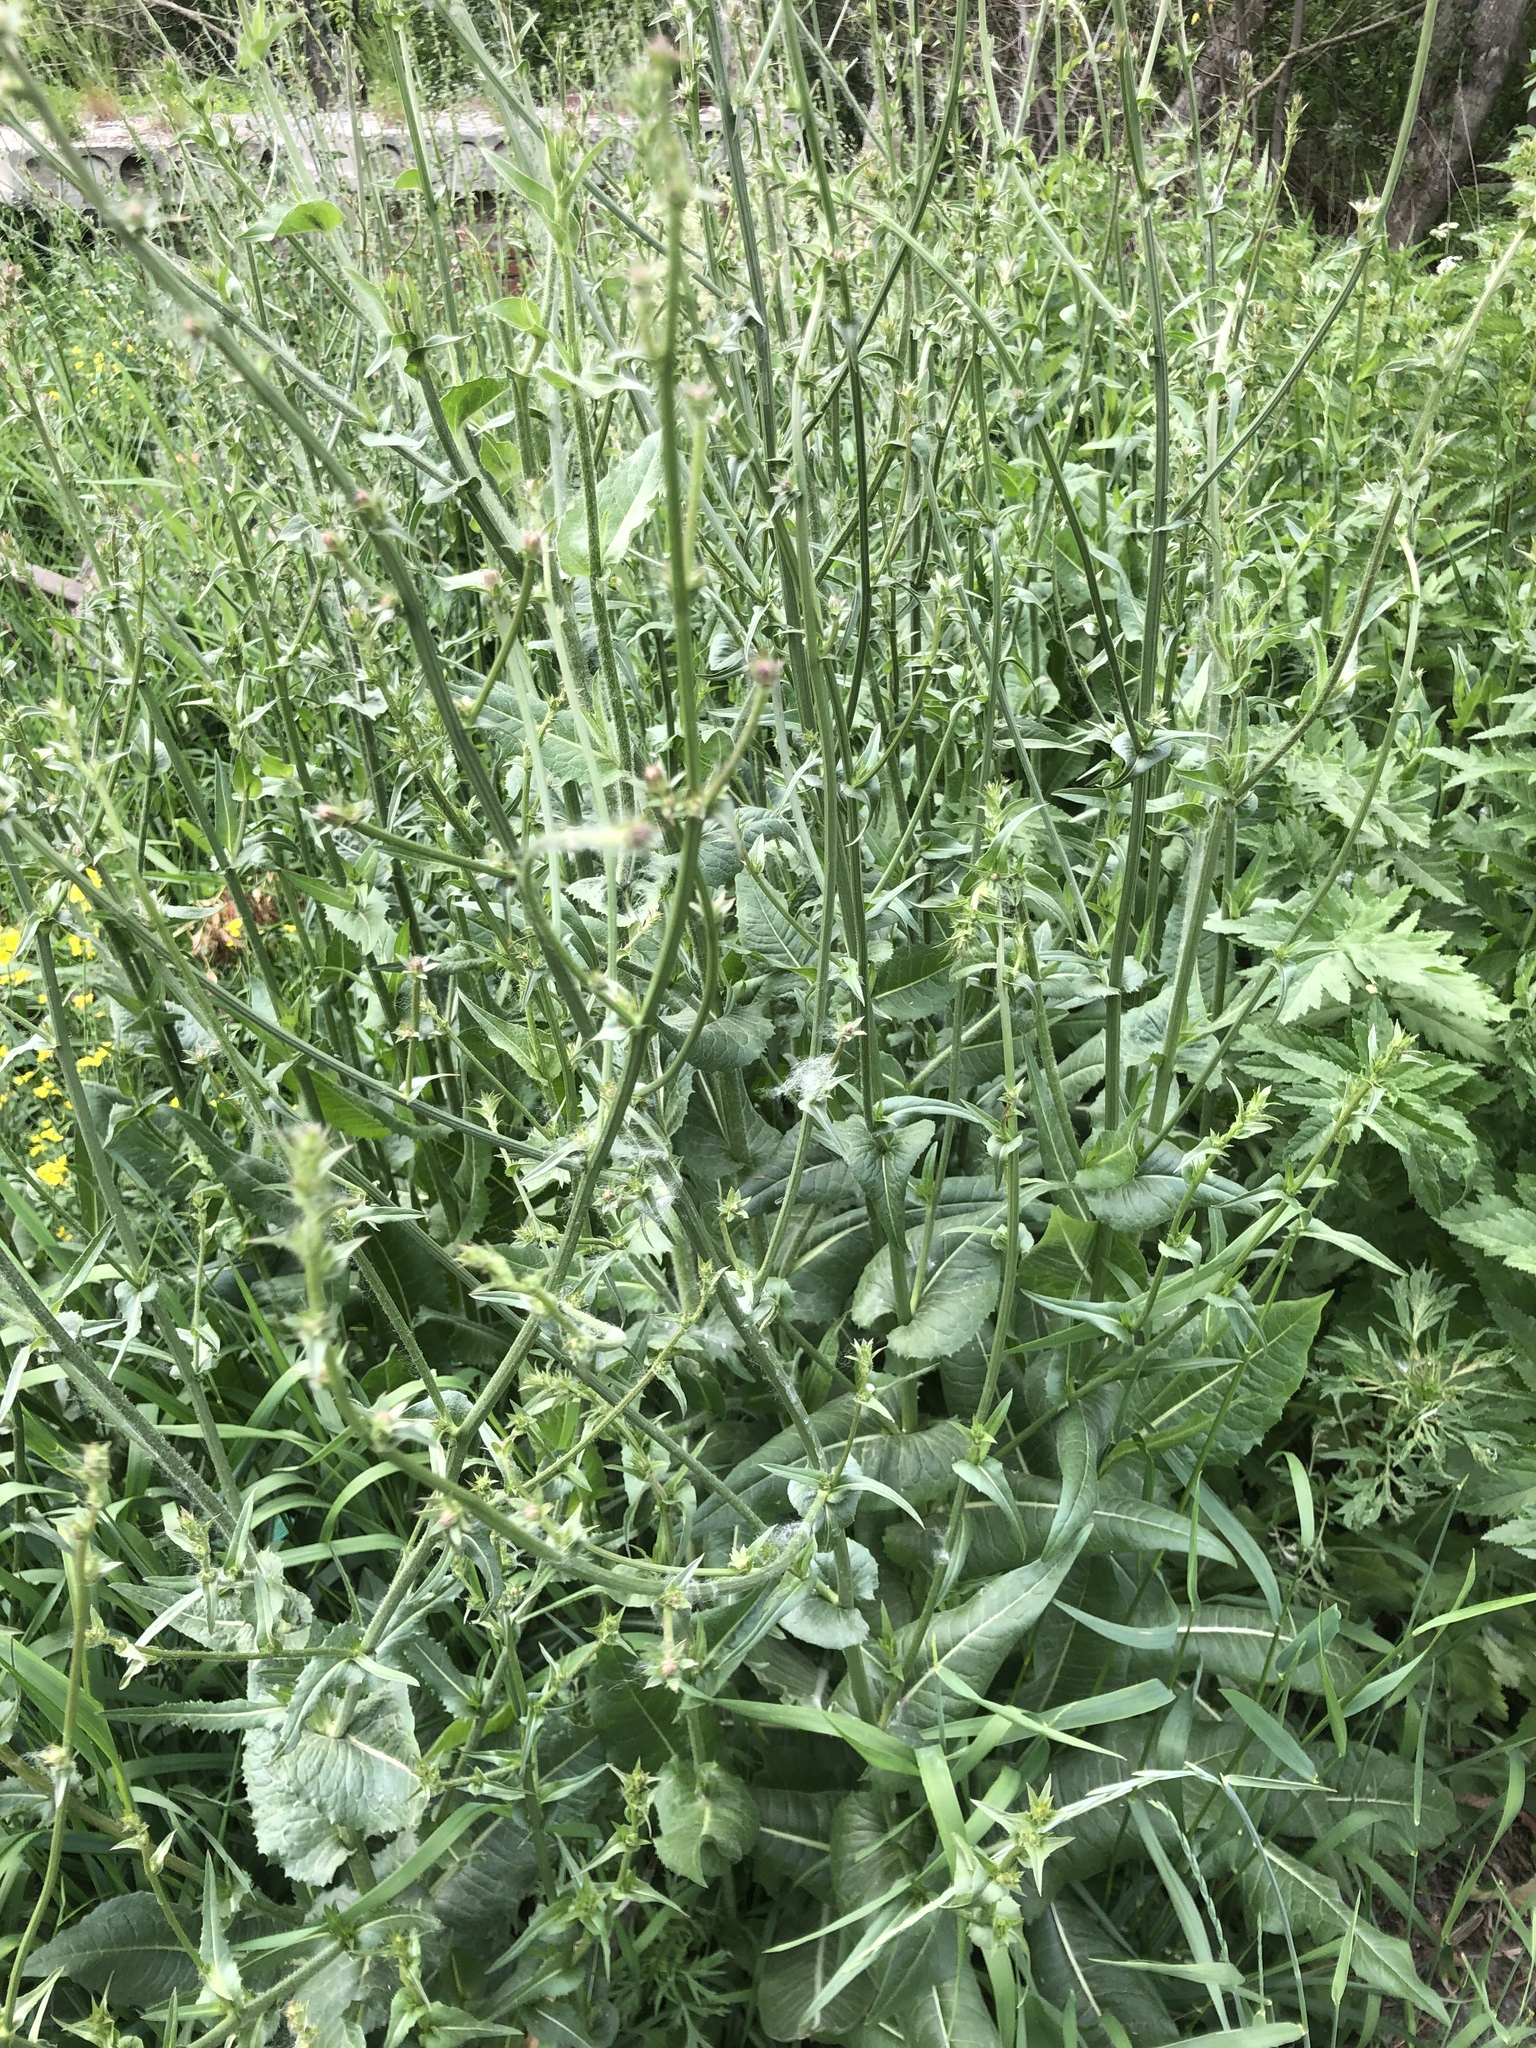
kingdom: Plantae
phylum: Tracheophyta
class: Magnoliopsida
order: Asterales
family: Asteraceae
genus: Cichorium
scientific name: Cichorium intybus
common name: Chicory
